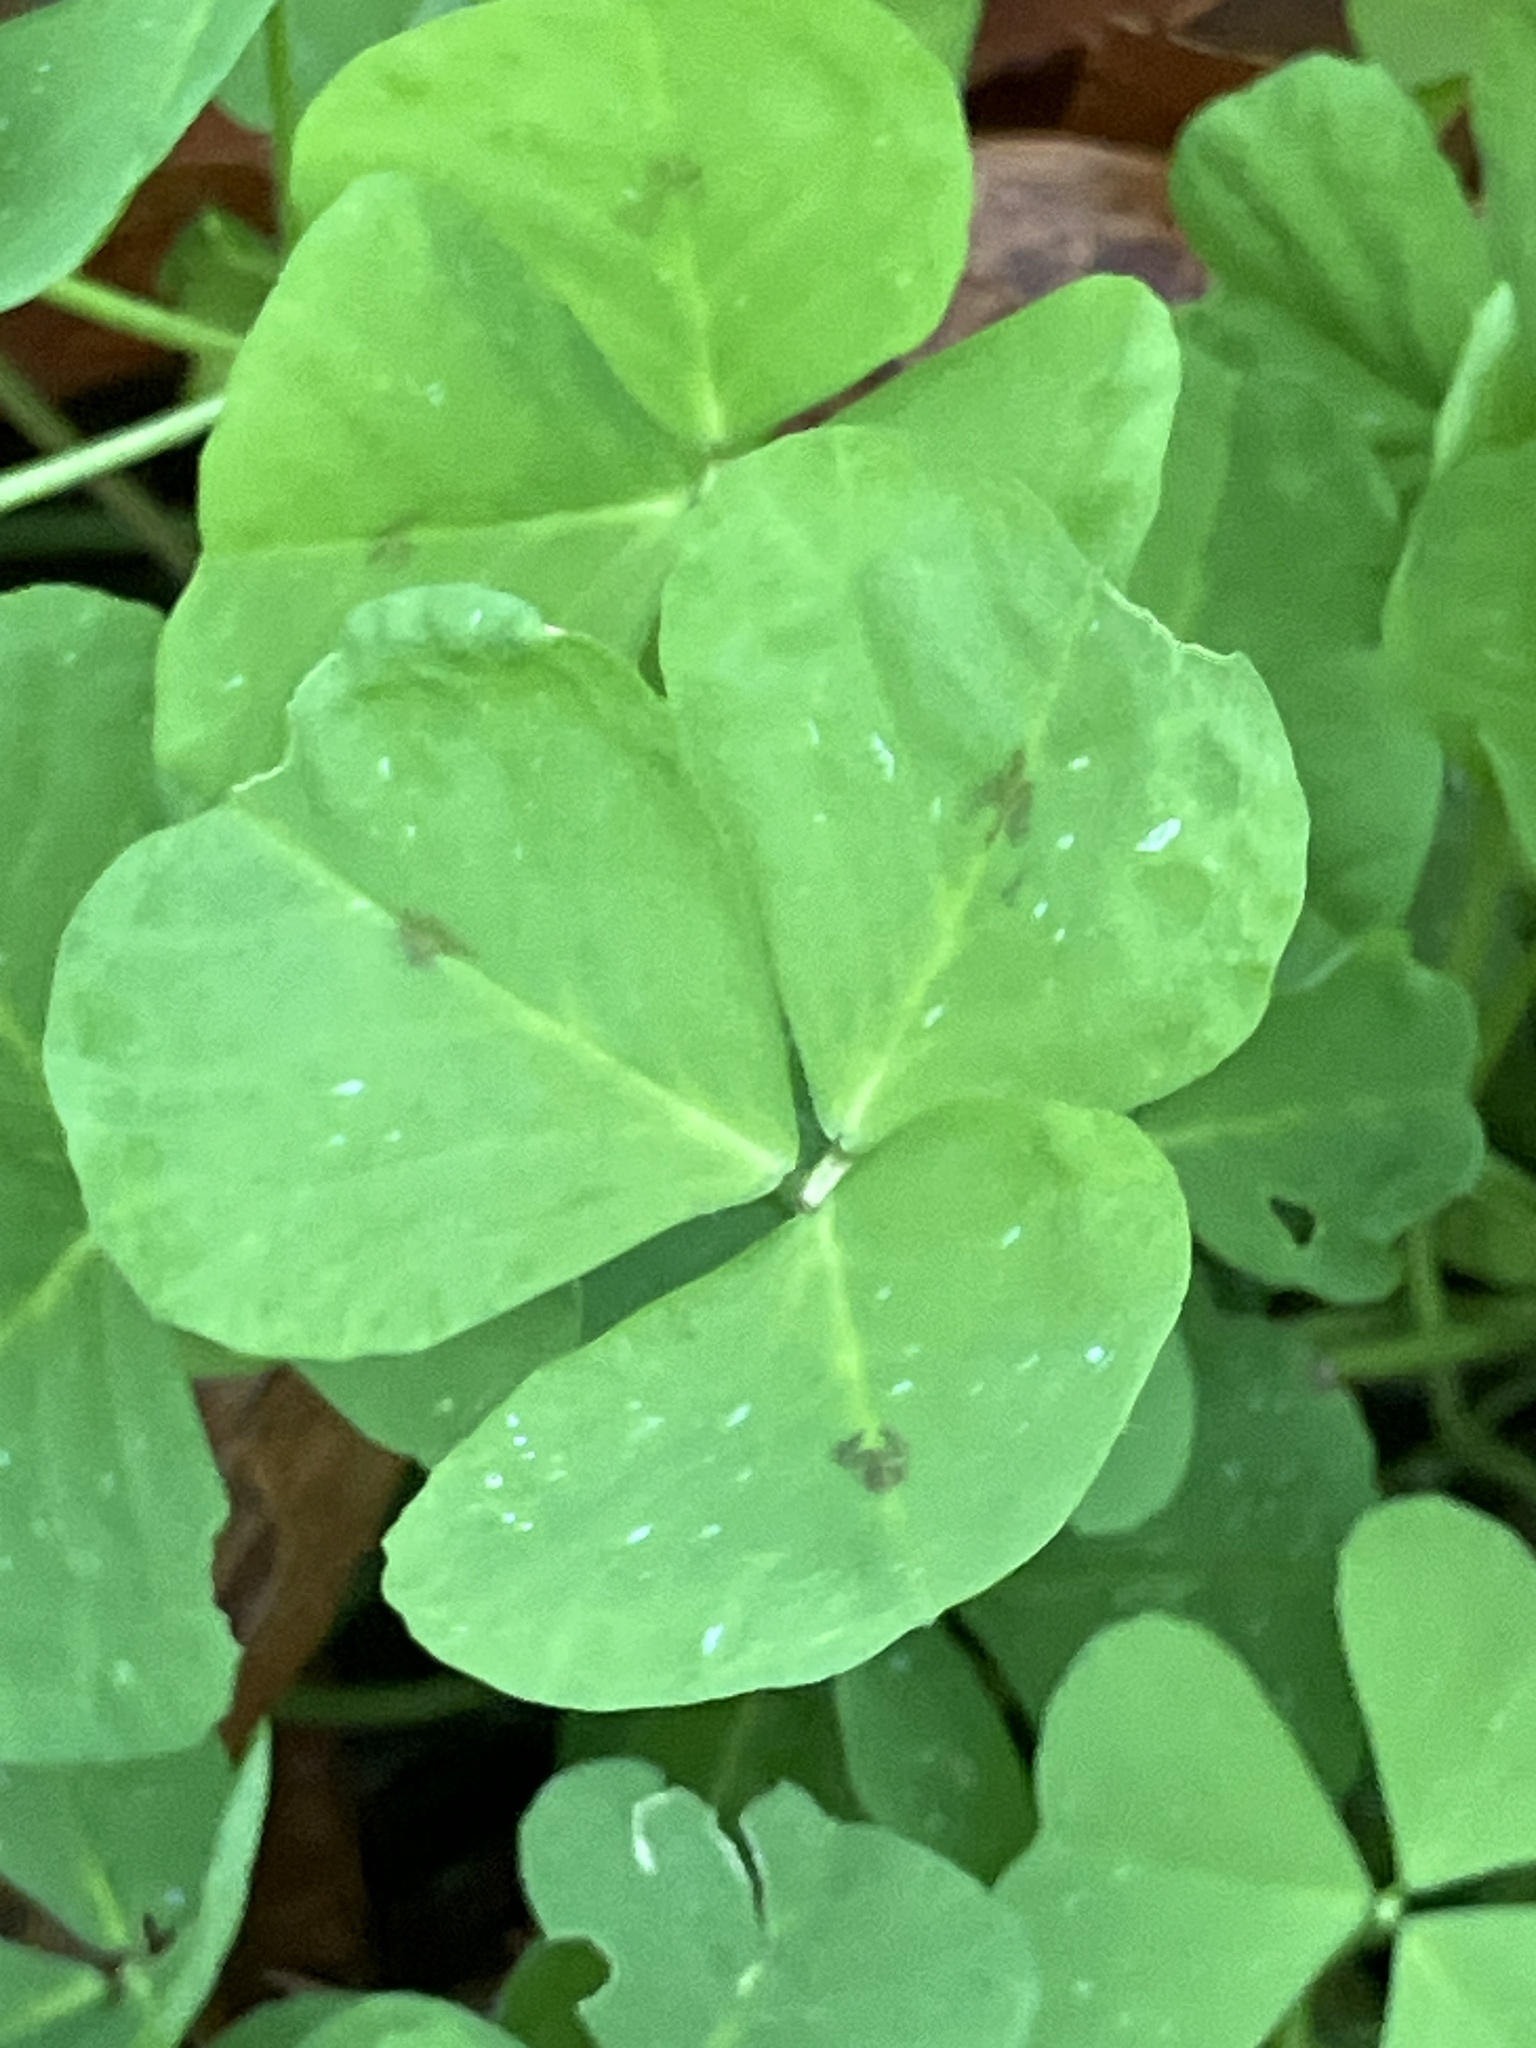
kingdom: Plantae
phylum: Tracheophyta
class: Magnoliopsida
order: Fabales
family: Fabaceae
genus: Medicago
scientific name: Medicago arabica
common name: Spotted medick
